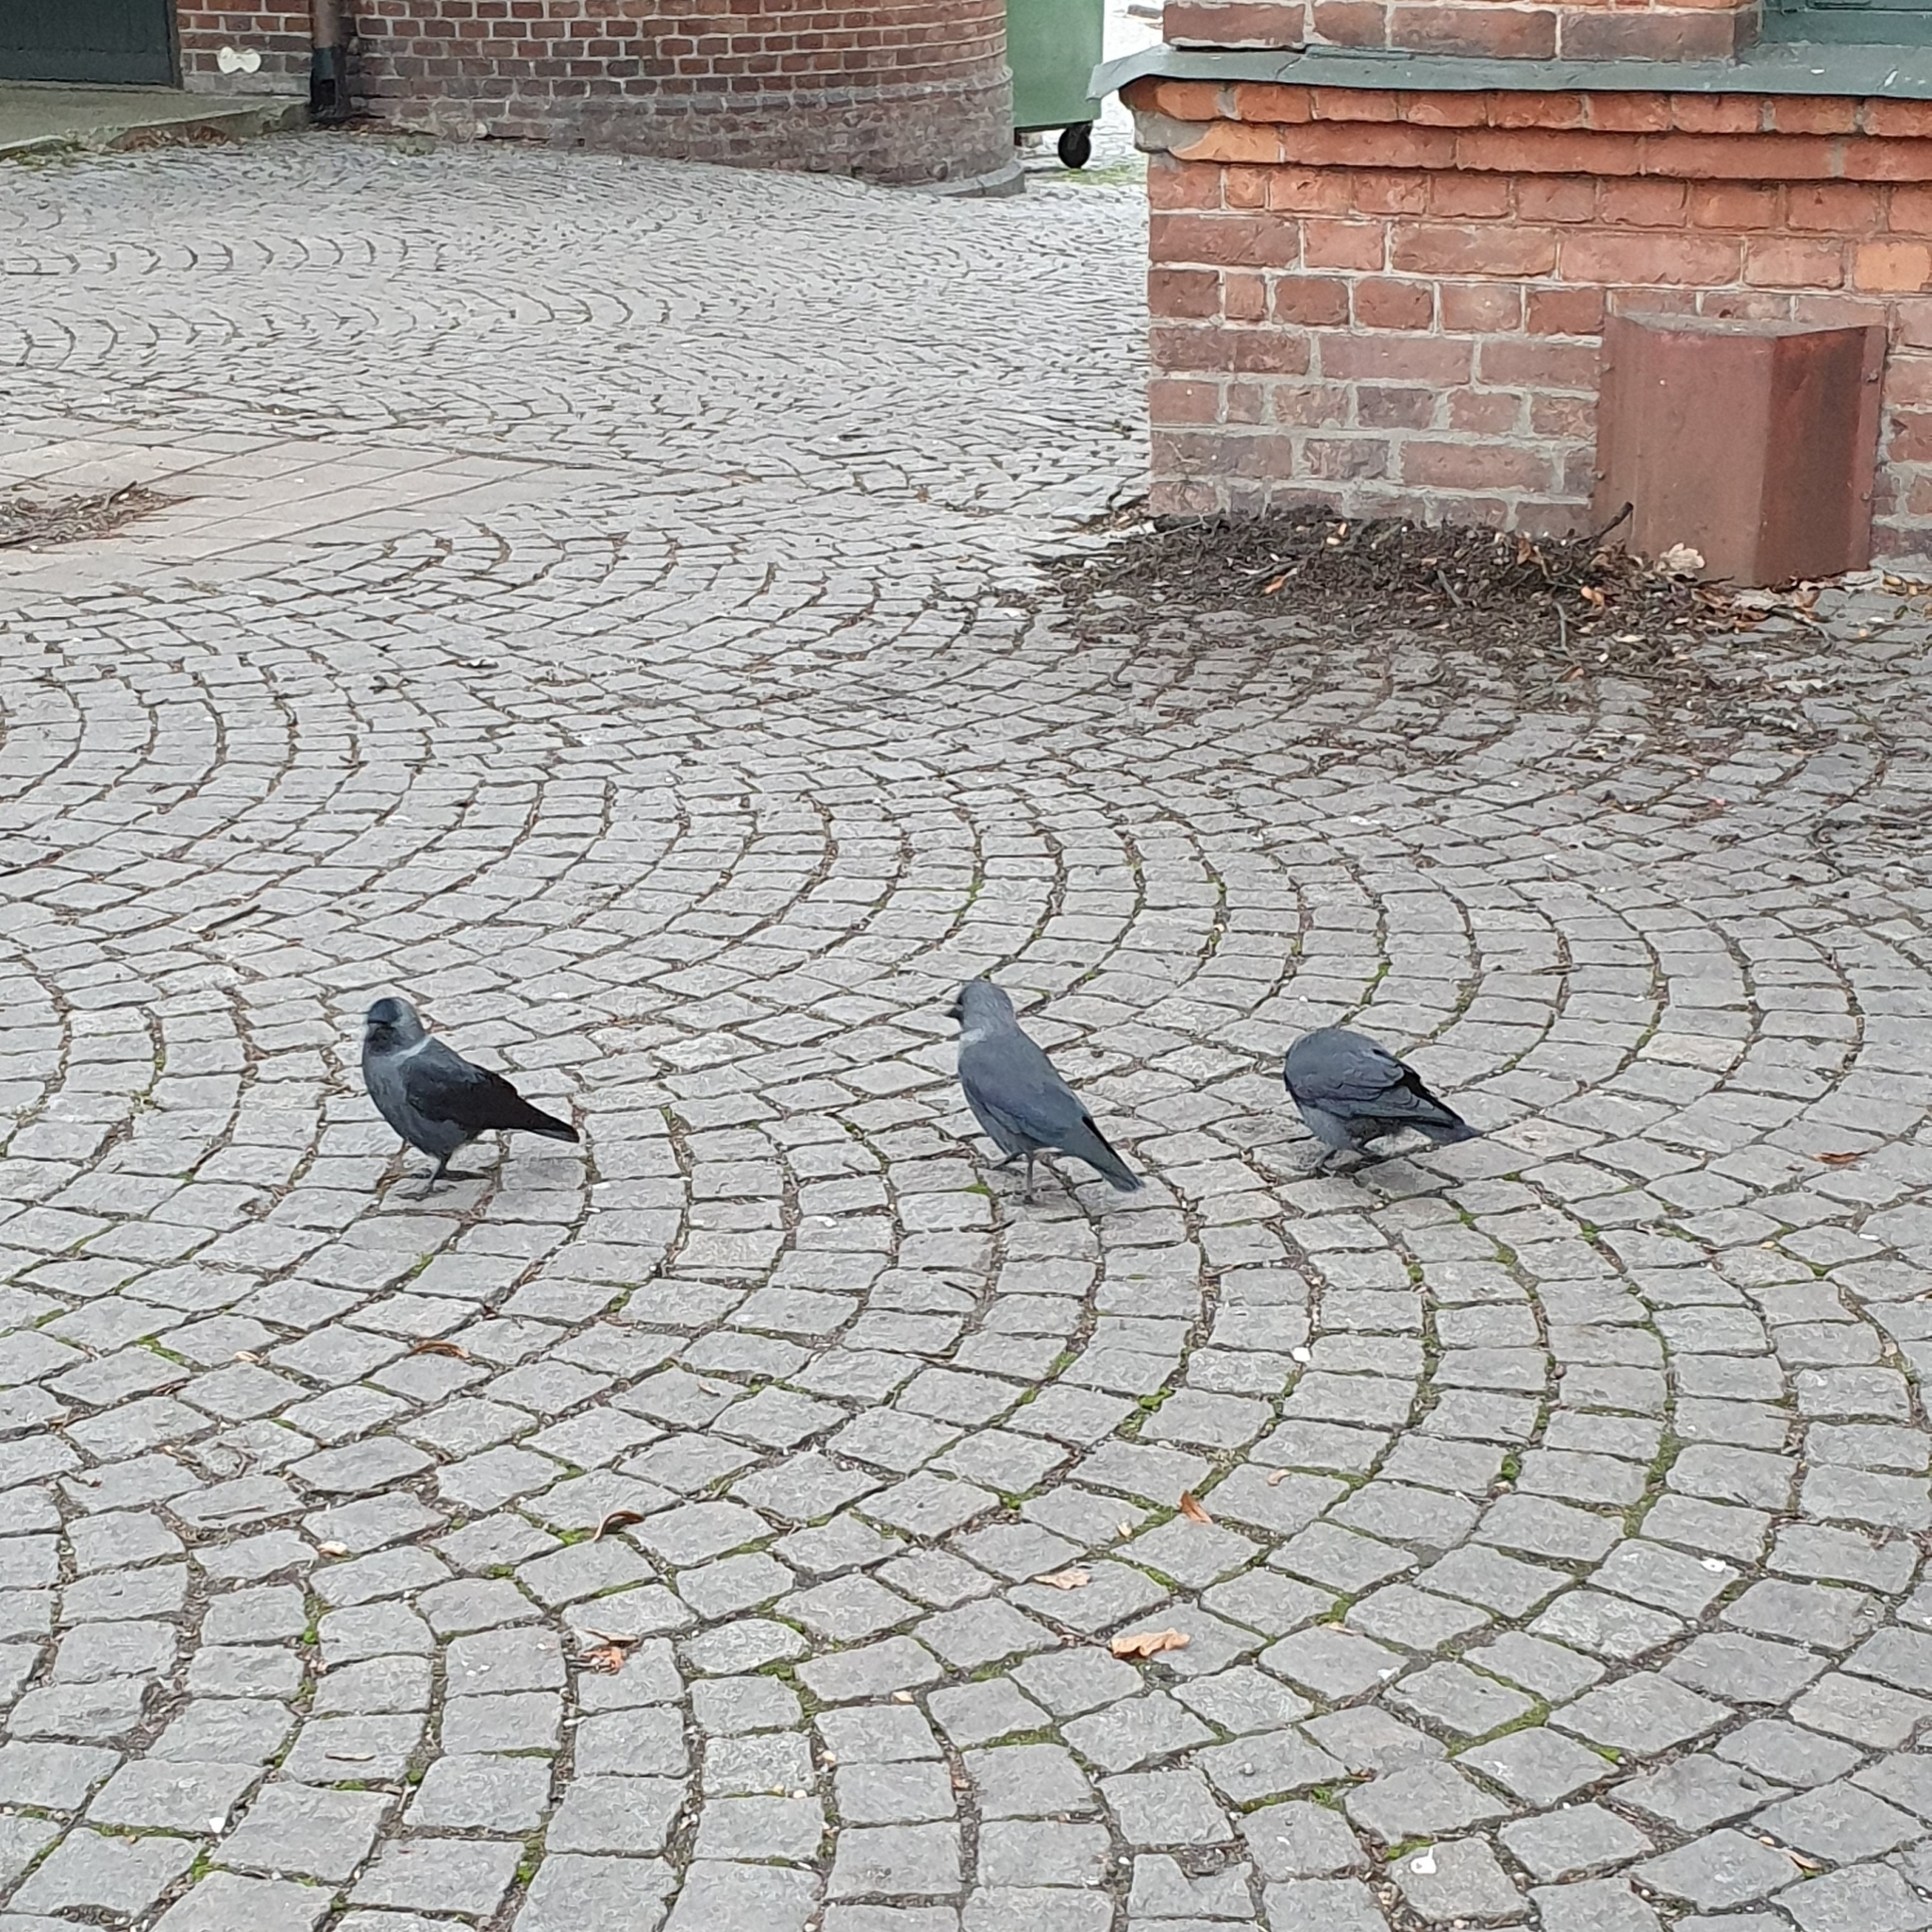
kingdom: Animalia
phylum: Chordata
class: Aves
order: Passeriformes
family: Corvidae
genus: Coloeus
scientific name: Coloeus monedula
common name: Western jackdaw
